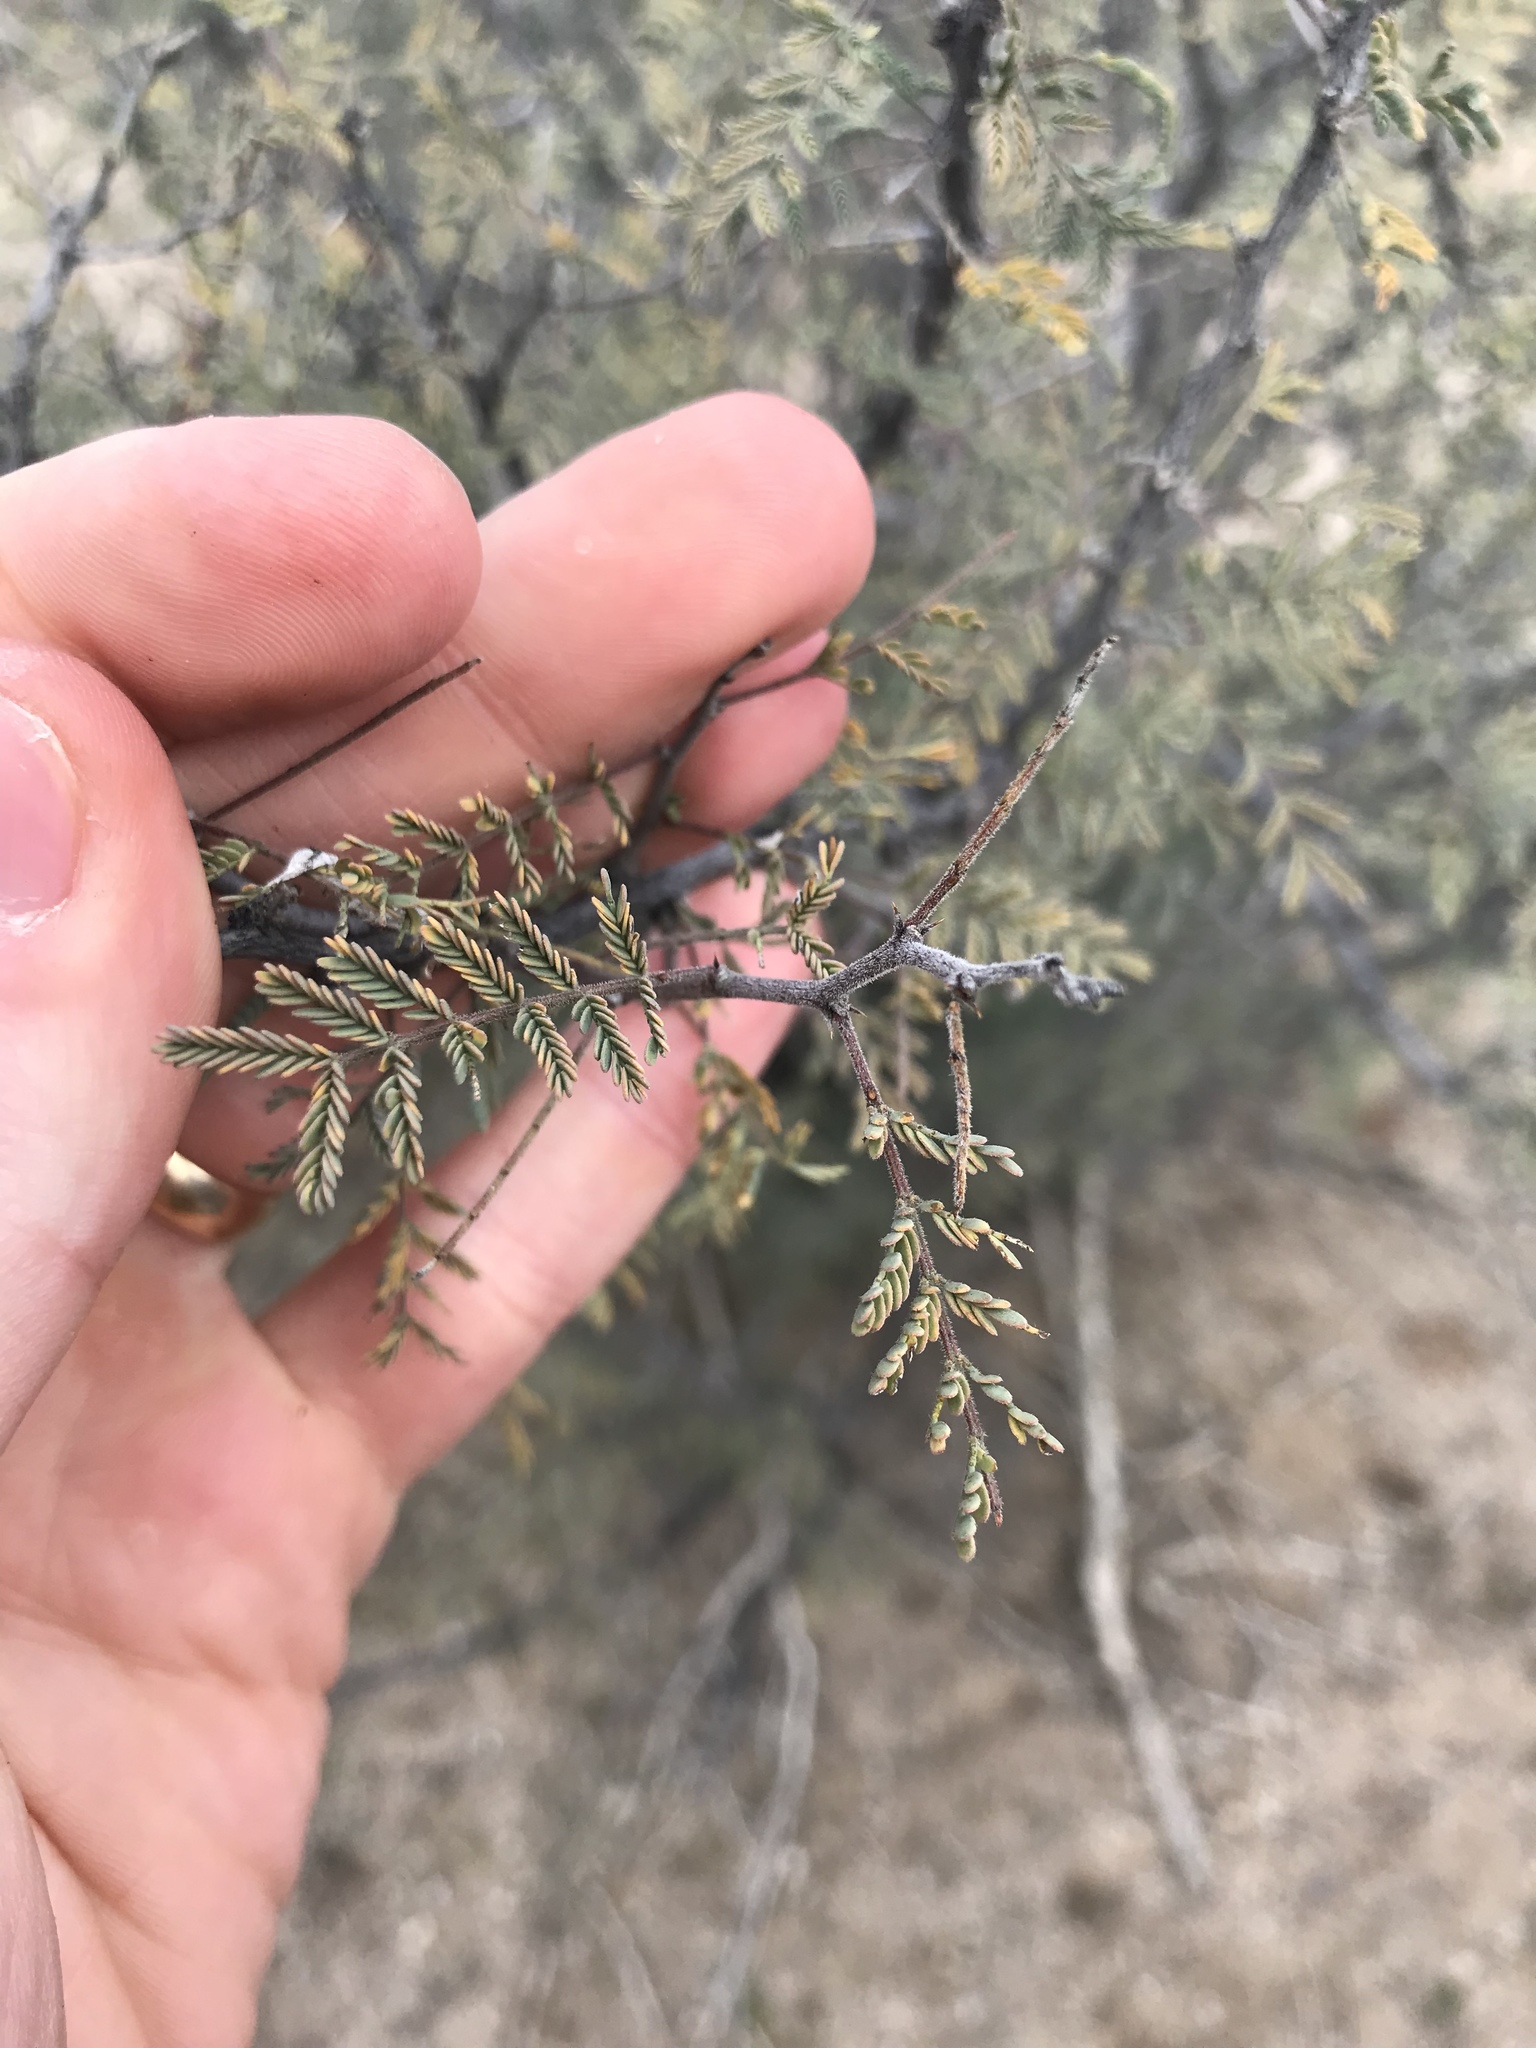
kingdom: Plantae
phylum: Tracheophyta
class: Magnoliopsida
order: Fabales
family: Fabaceae
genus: Vachellia
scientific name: Vachellia constricta
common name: Mescat acacia
